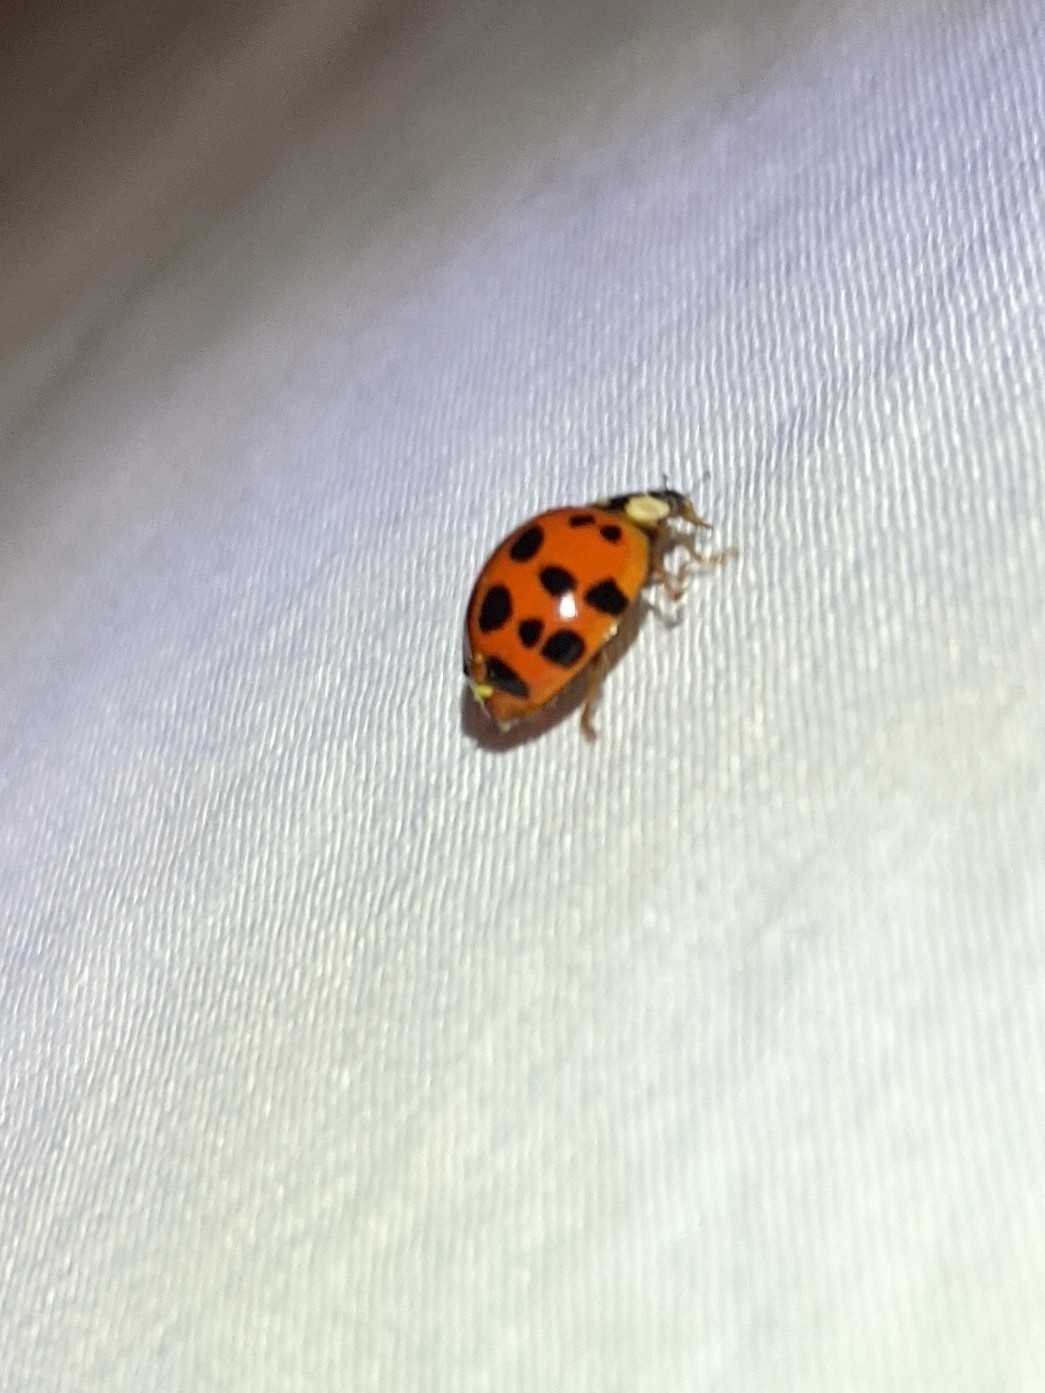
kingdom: Fungi
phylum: Ascomycota
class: Laboulbeniomycetes
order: Laboulbeniales
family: Laboulbeniaceae
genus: Hesperomyces
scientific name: Hesperomyces harmoniae
